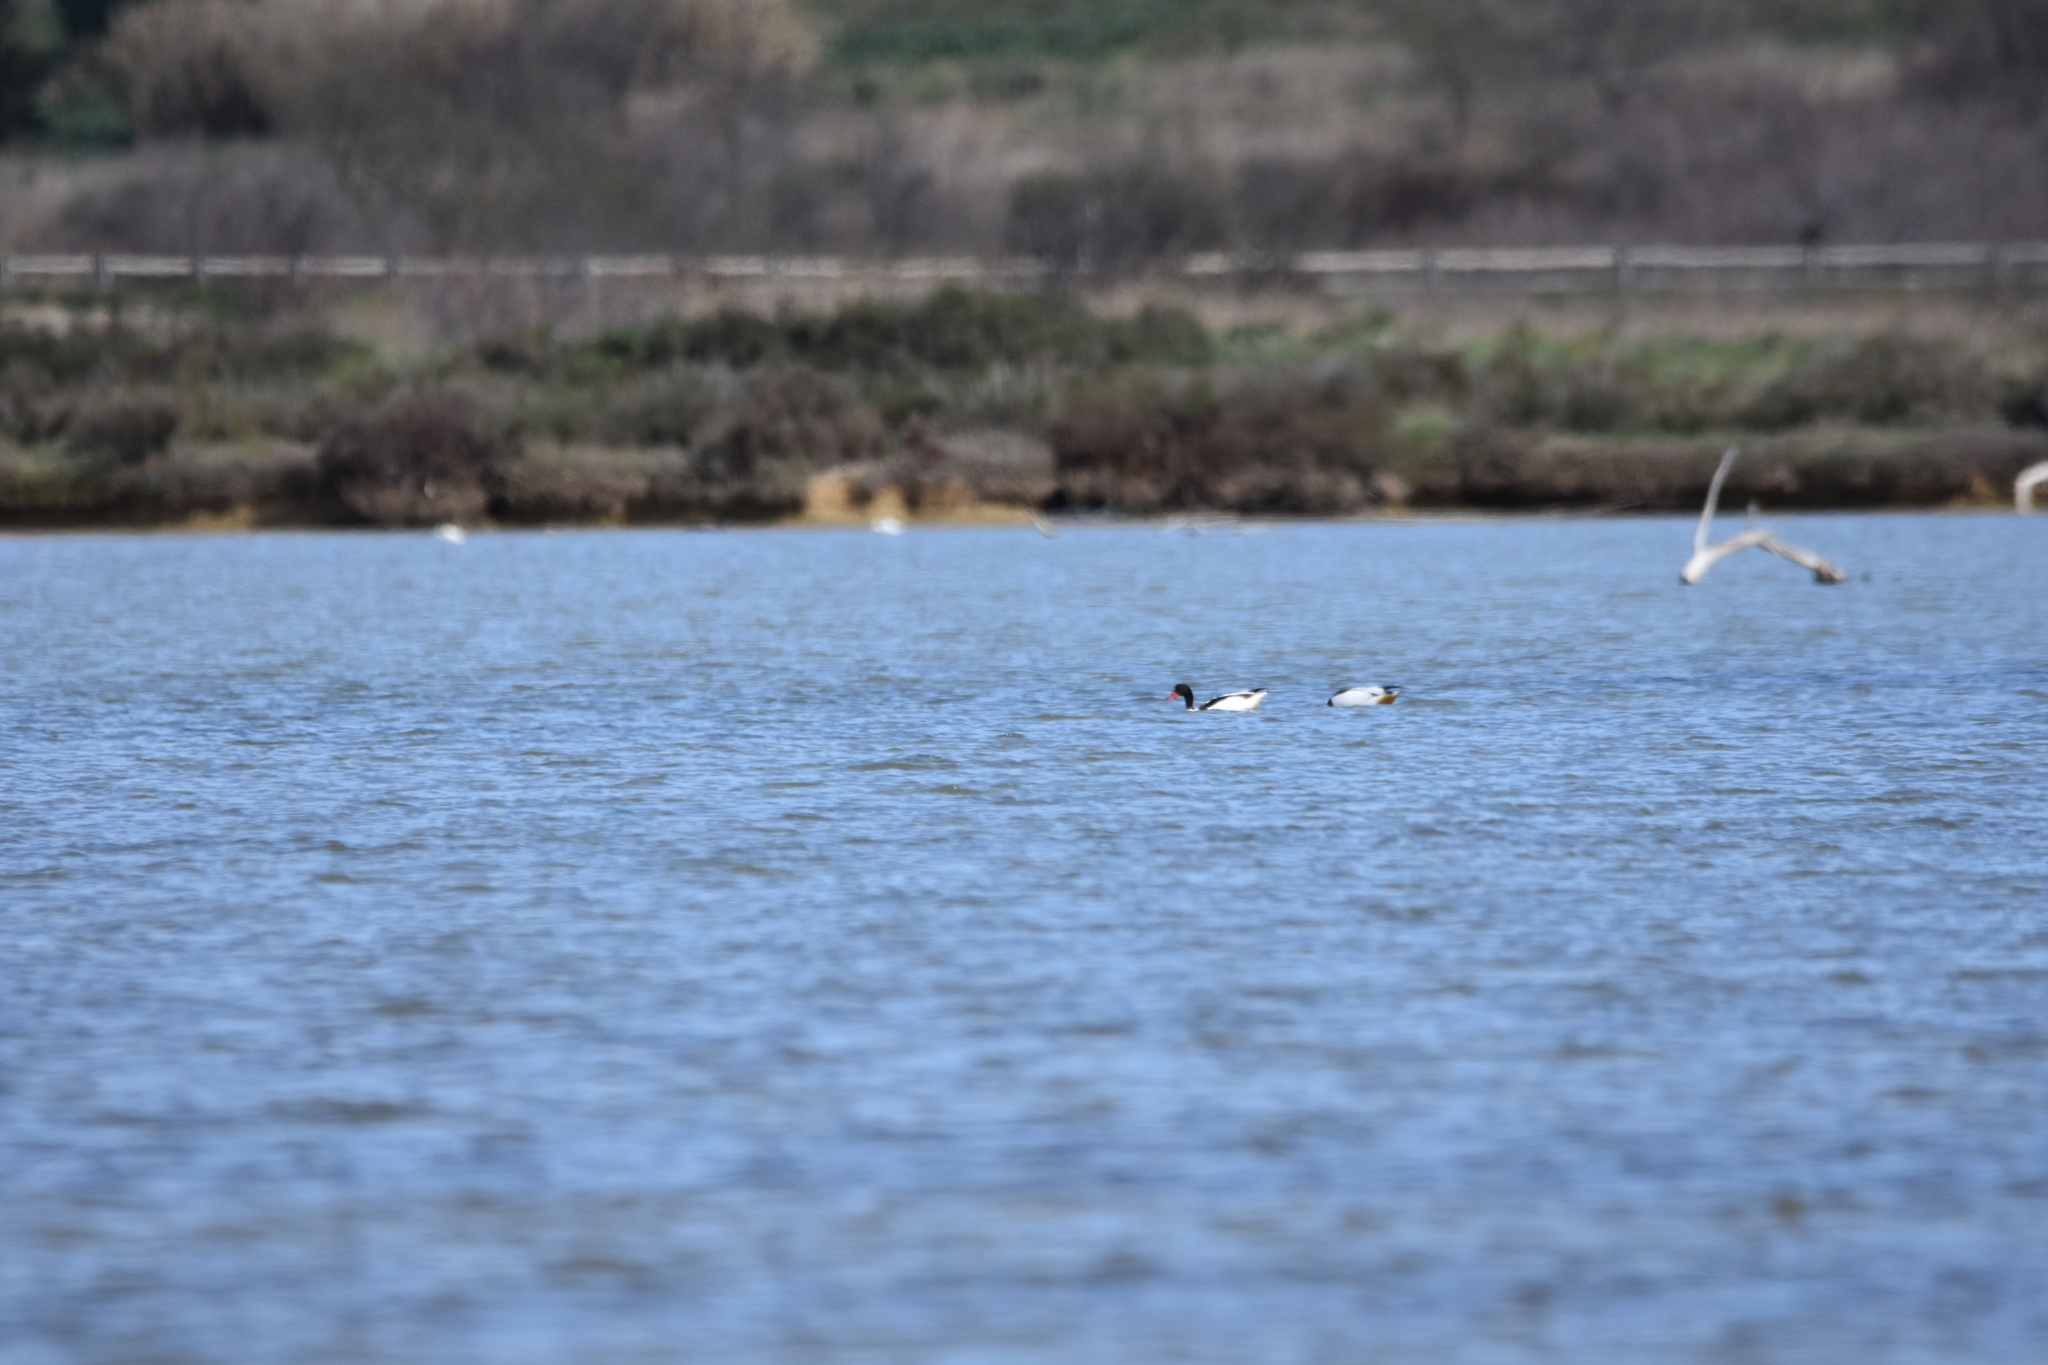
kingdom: Animalia
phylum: Chordata
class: Aves
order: Anseriformes
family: Anatidae
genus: Tadorna
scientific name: Tadorna tadorna
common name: Common shelduck
